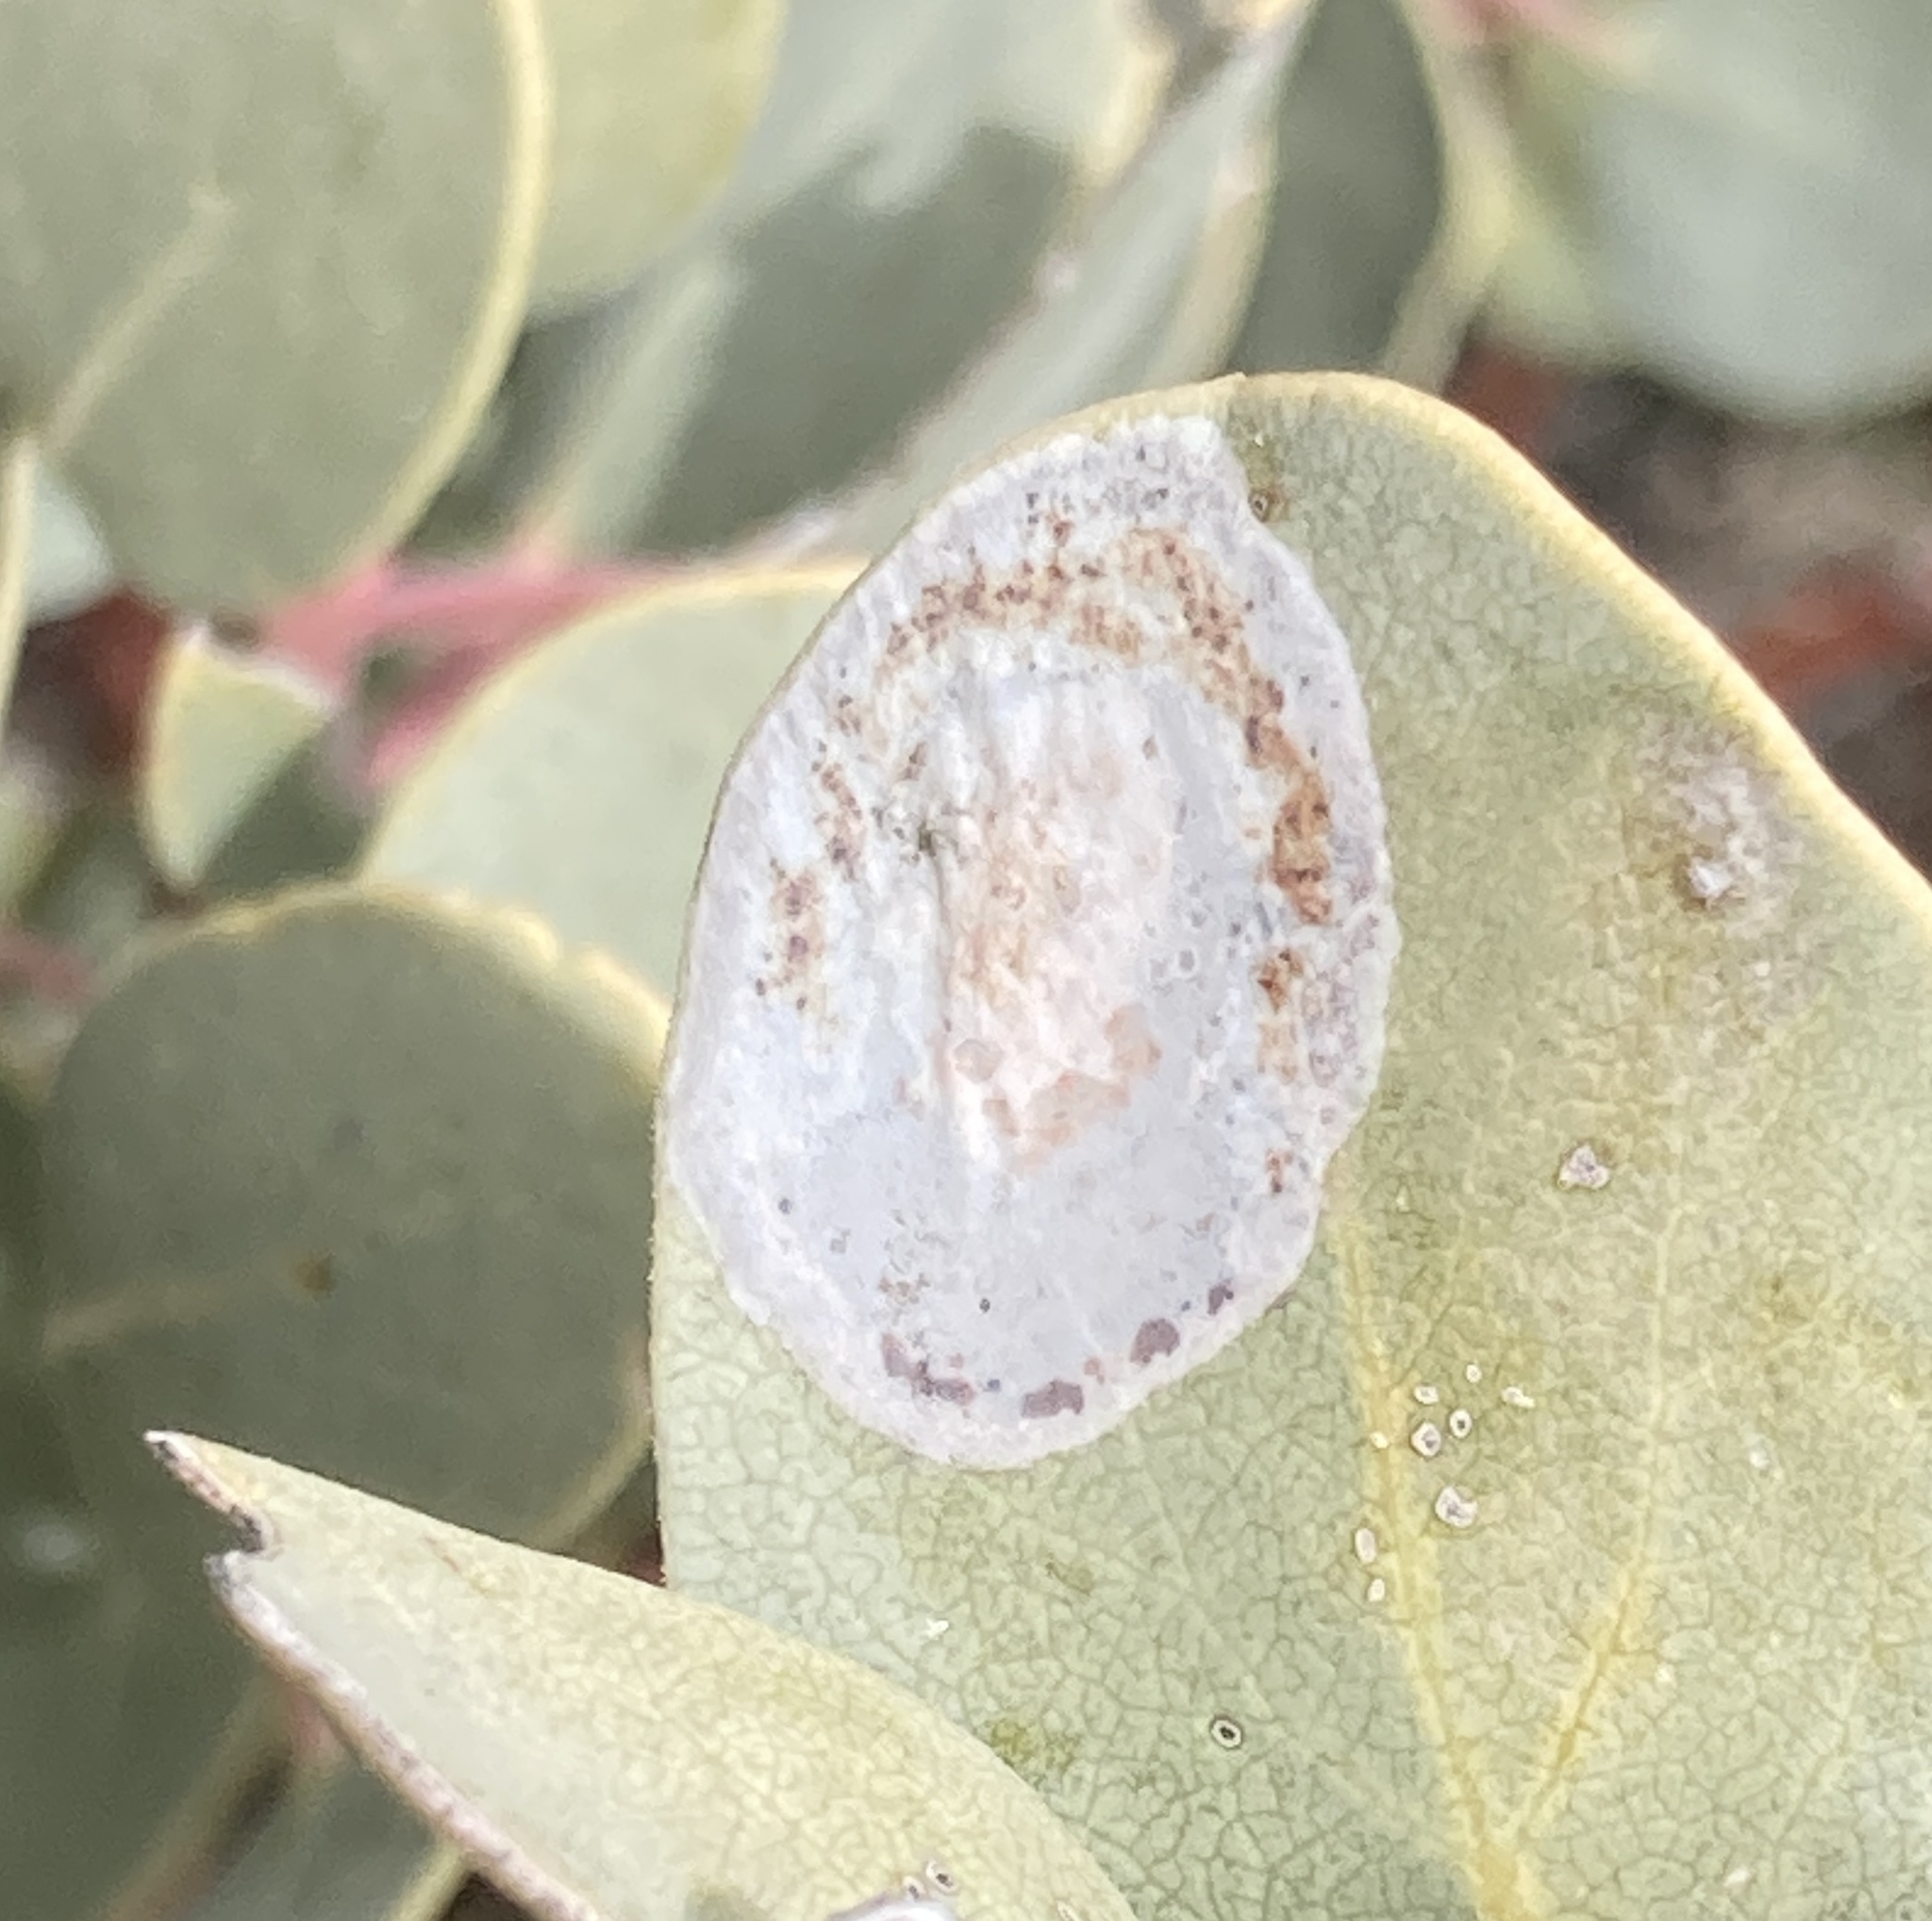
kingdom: Animalia
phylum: Arthropoda
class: Insecta
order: Lepidoptera
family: Gracillariidae
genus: Phyllonorycter
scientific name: Phyllonorycter manzanita
